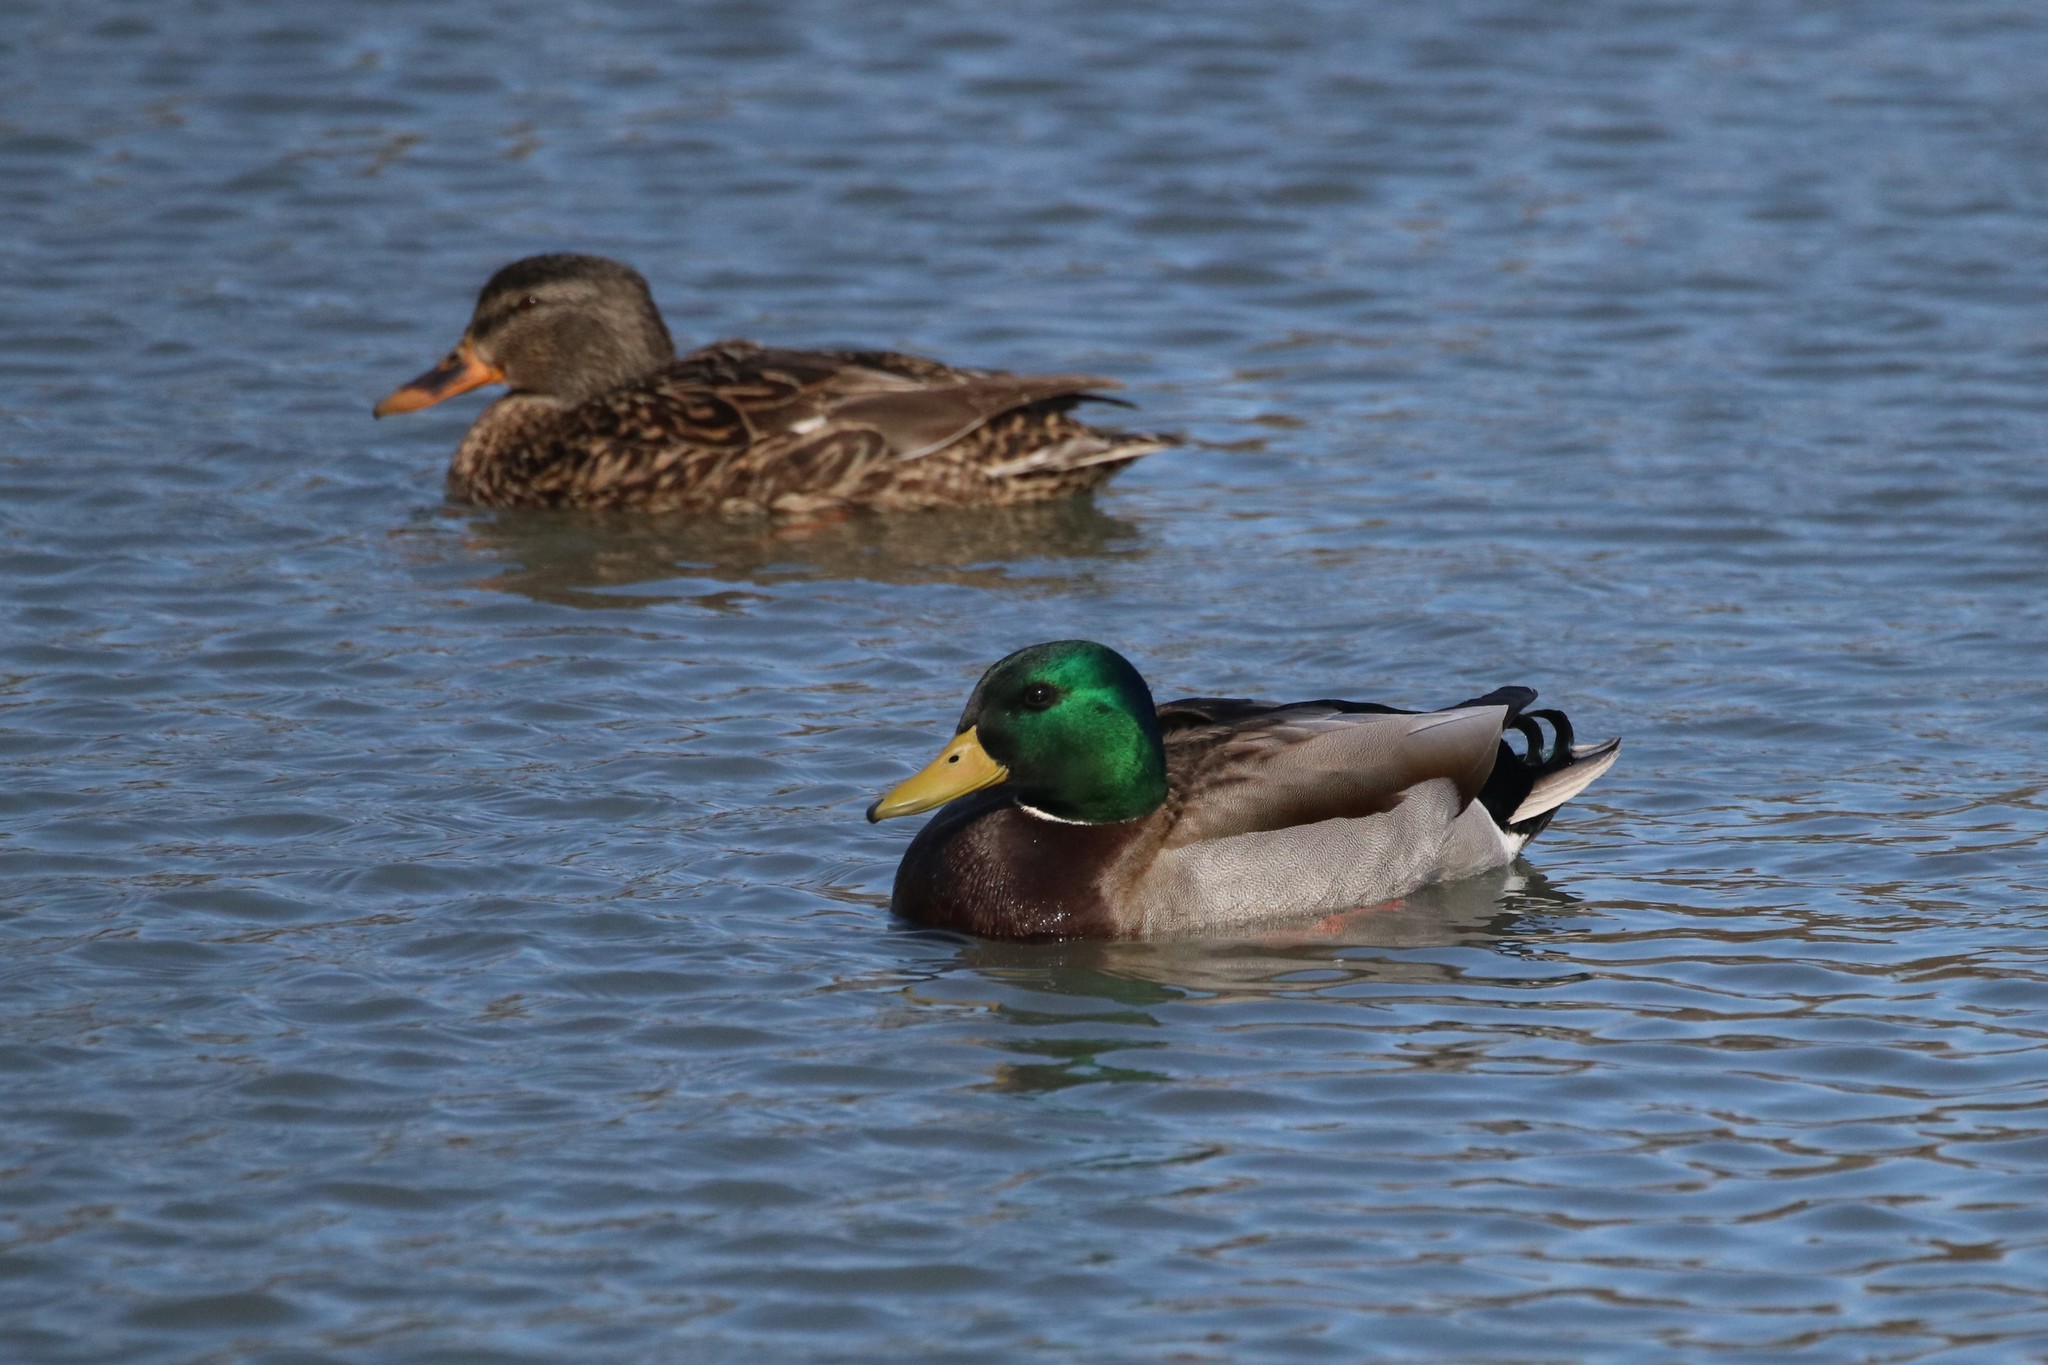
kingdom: Animalia
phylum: Chordata
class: Aves
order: Anseriformes
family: Anatidae
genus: Anas
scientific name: Anas platyrhynchos
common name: Mallard
